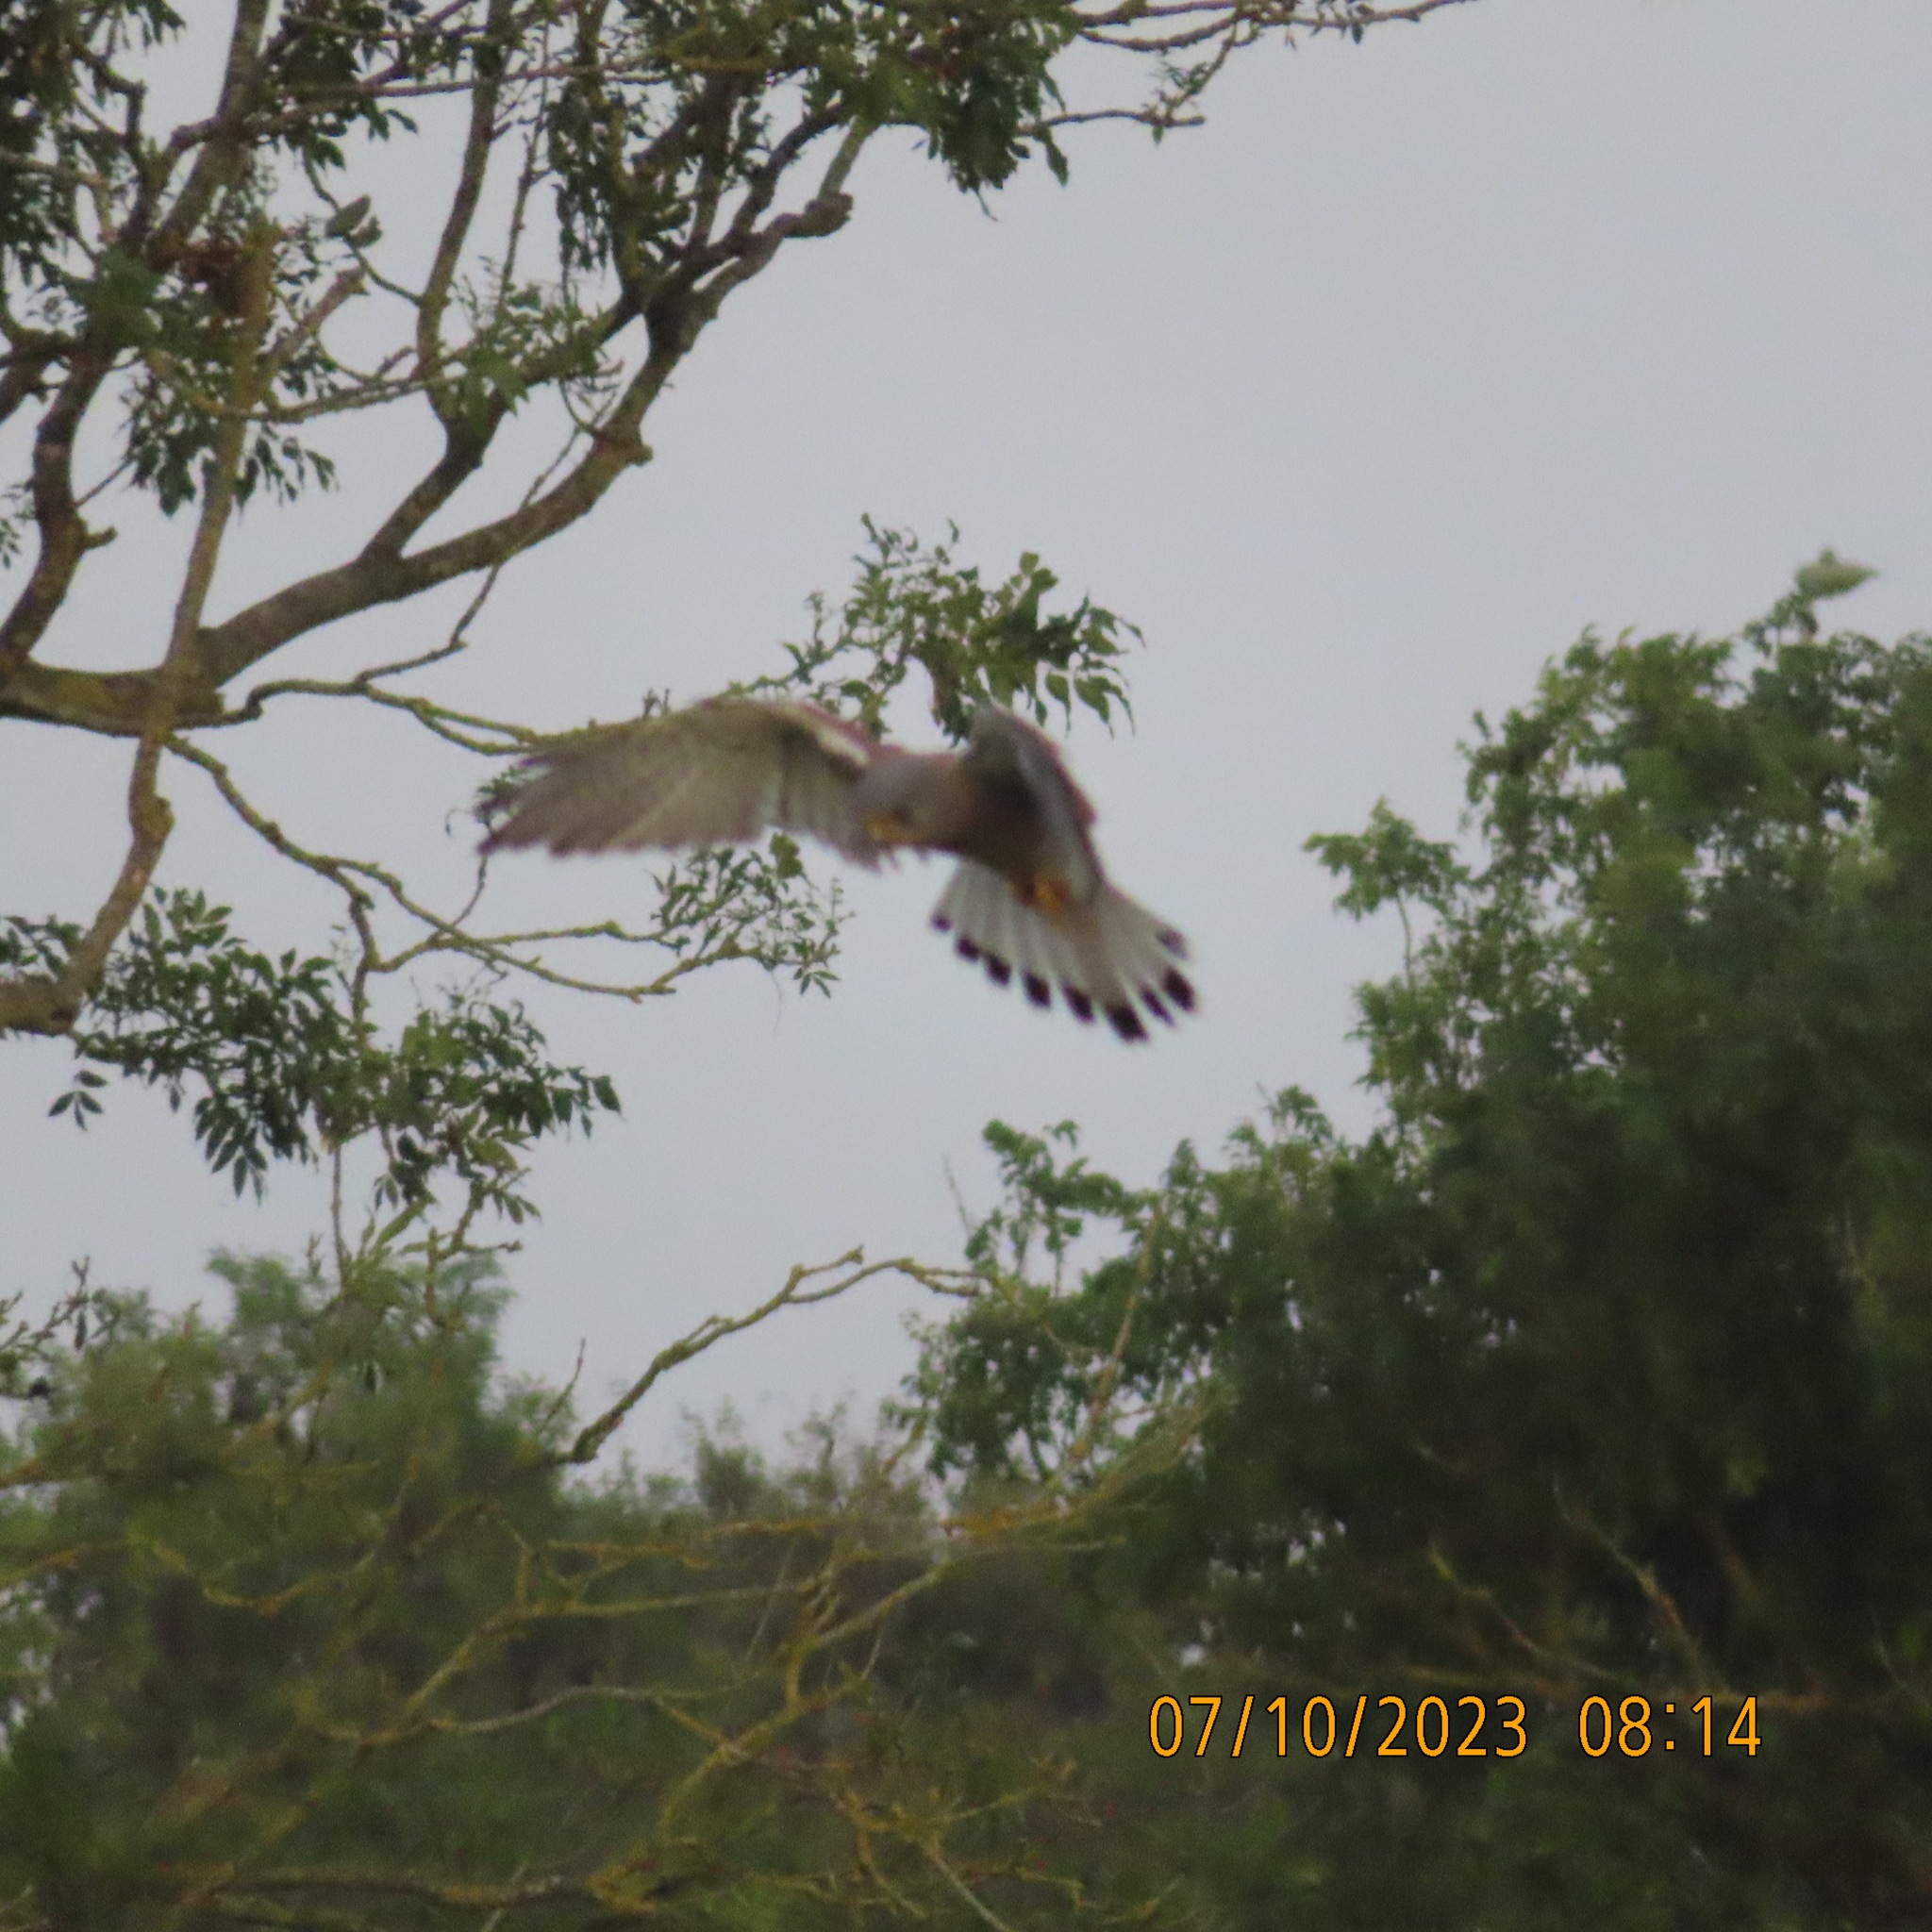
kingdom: Animalia
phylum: Chordata
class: Aves
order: Falconiformes
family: Falconidae
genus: Falco
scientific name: Falco tinnunculus
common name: Common kestrel
